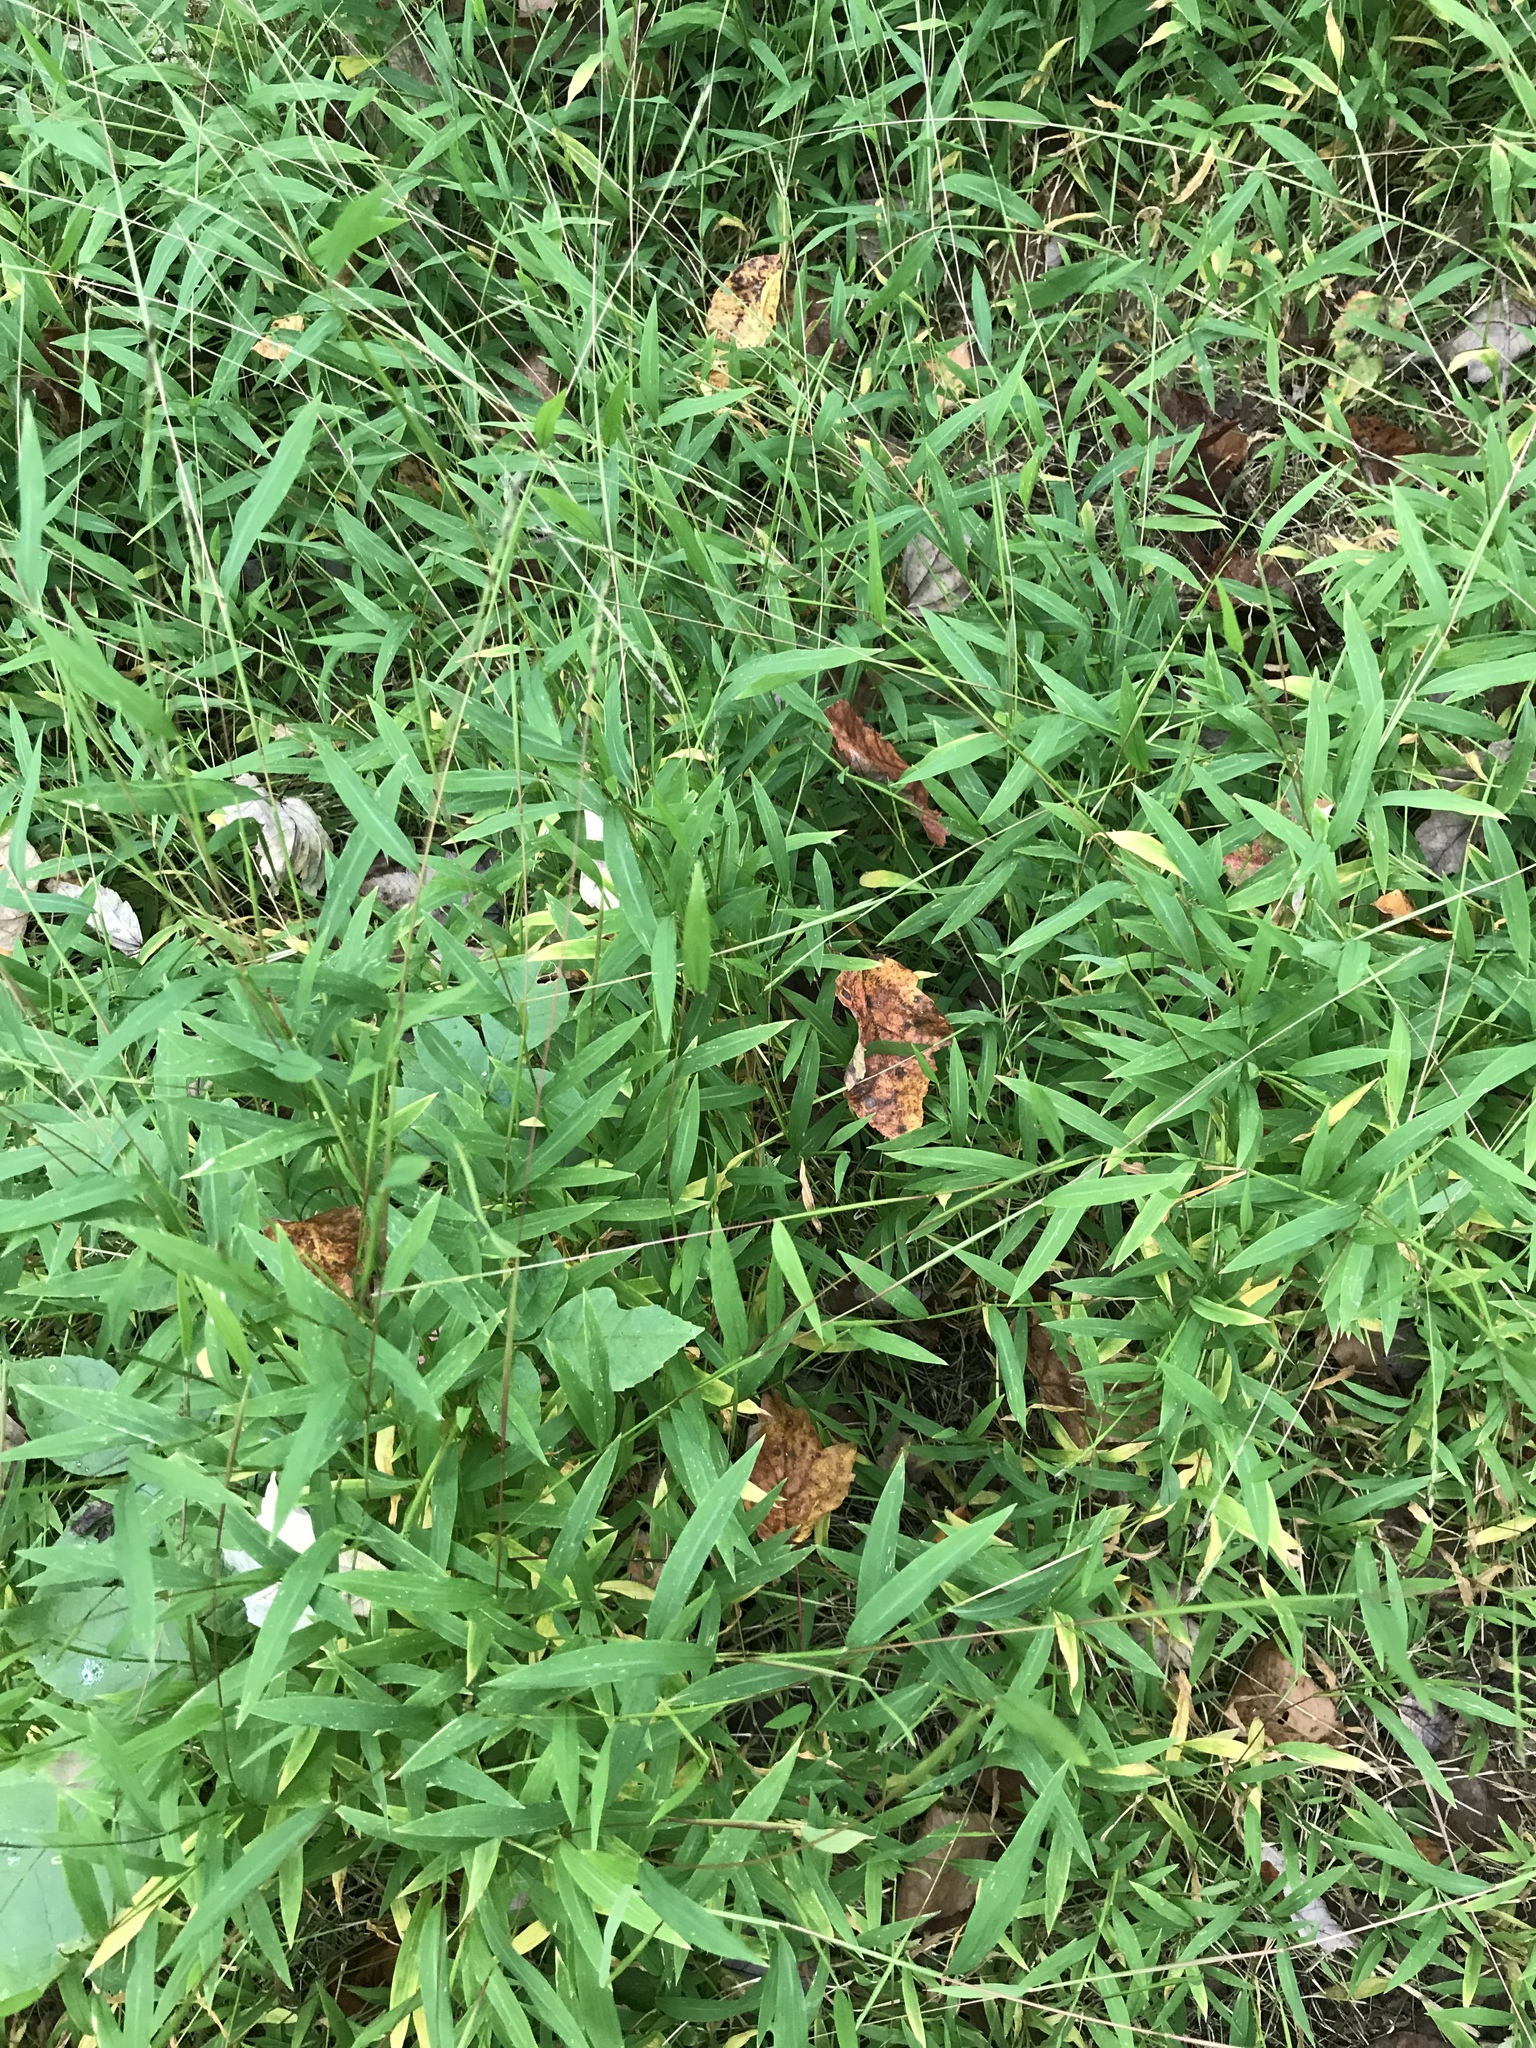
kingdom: Plantae
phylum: Tracheophyta
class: Liliopsida
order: Poales
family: Poaceae
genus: Microstegium
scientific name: Microstegium vimineum
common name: Japanese stiltgrass
